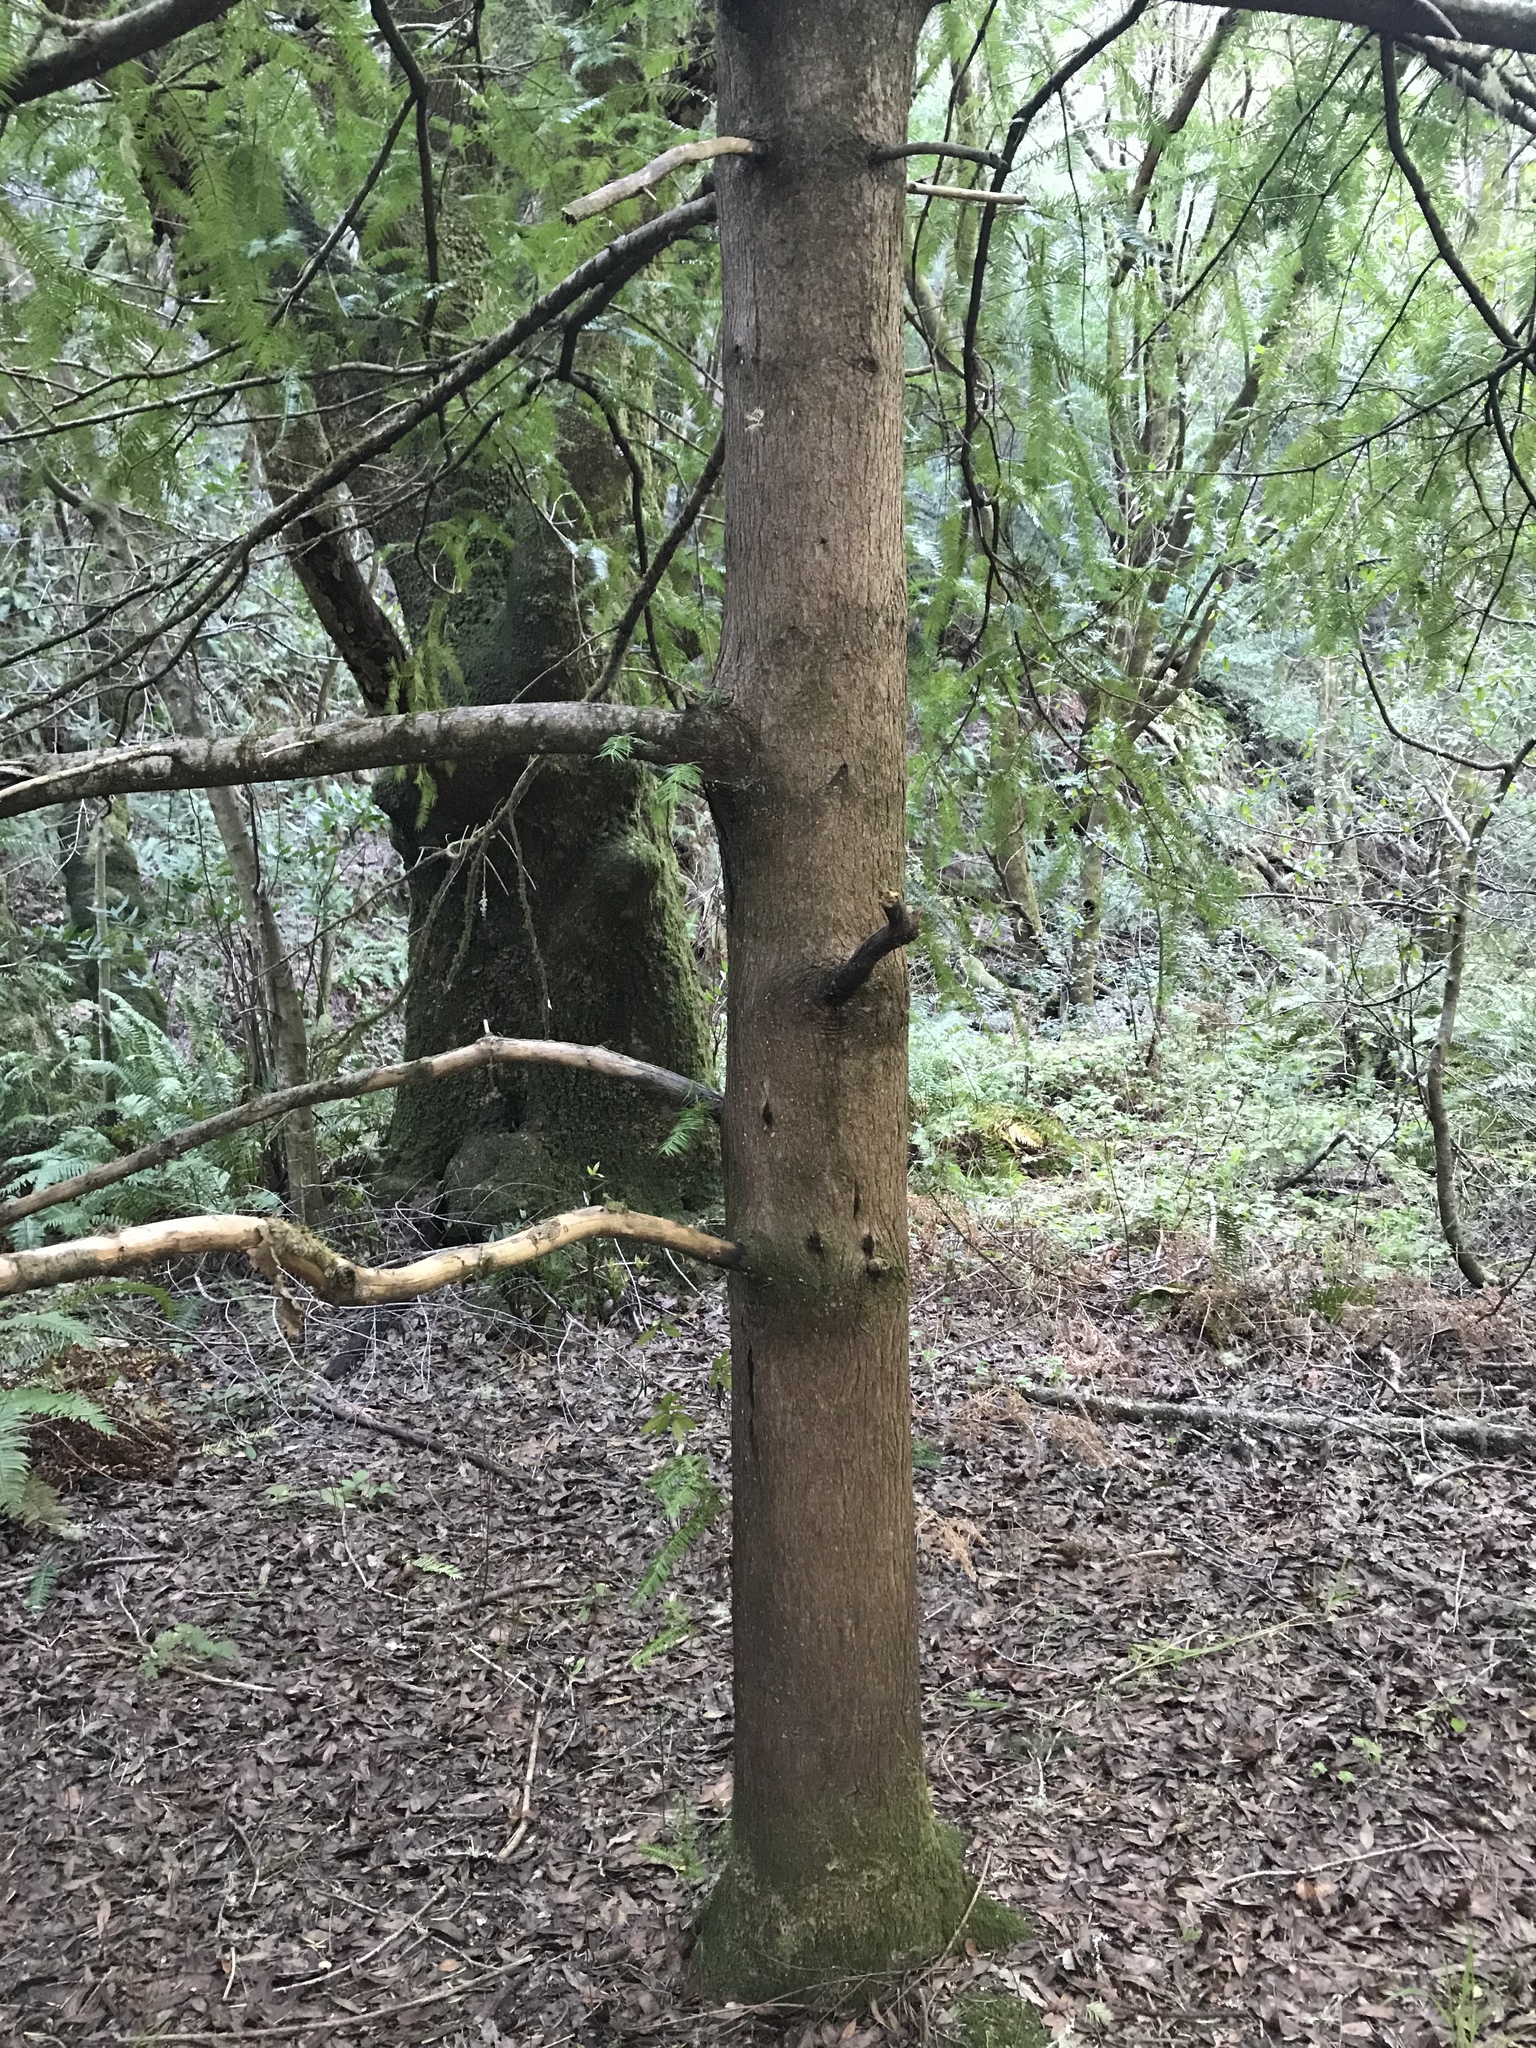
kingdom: Plantae
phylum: Tracheophyta
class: Pinopsida
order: Pinales
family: Taxaceae
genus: Torreya
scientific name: Torreya californica
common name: California torreya
